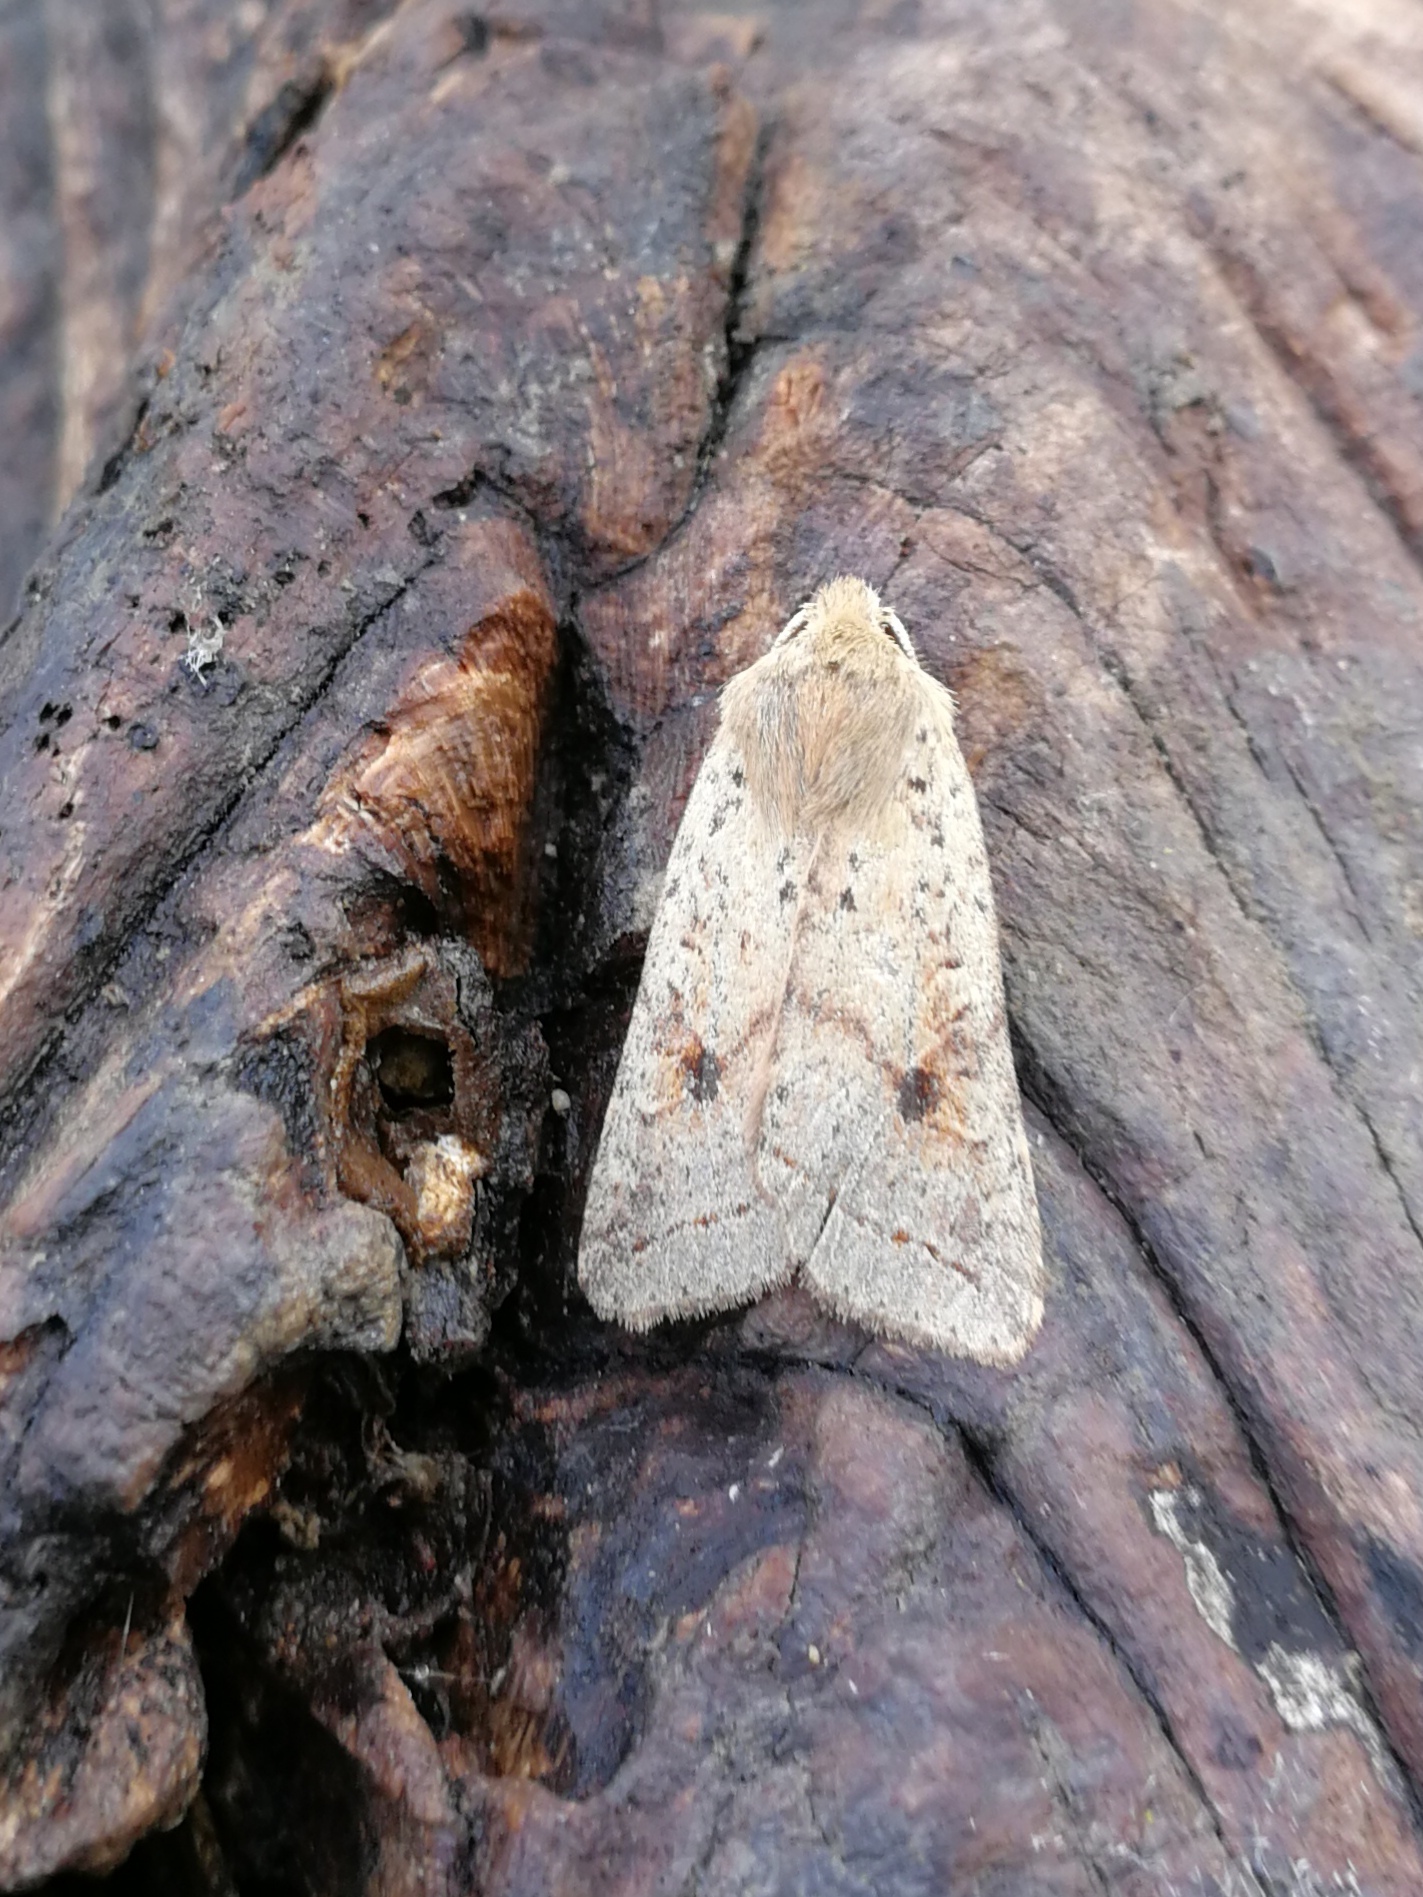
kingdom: Animalia
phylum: Arthropoda
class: Insecta
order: Lepidoptera
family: Noctuidae
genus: Agrochola
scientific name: Agrochola blidaensis
